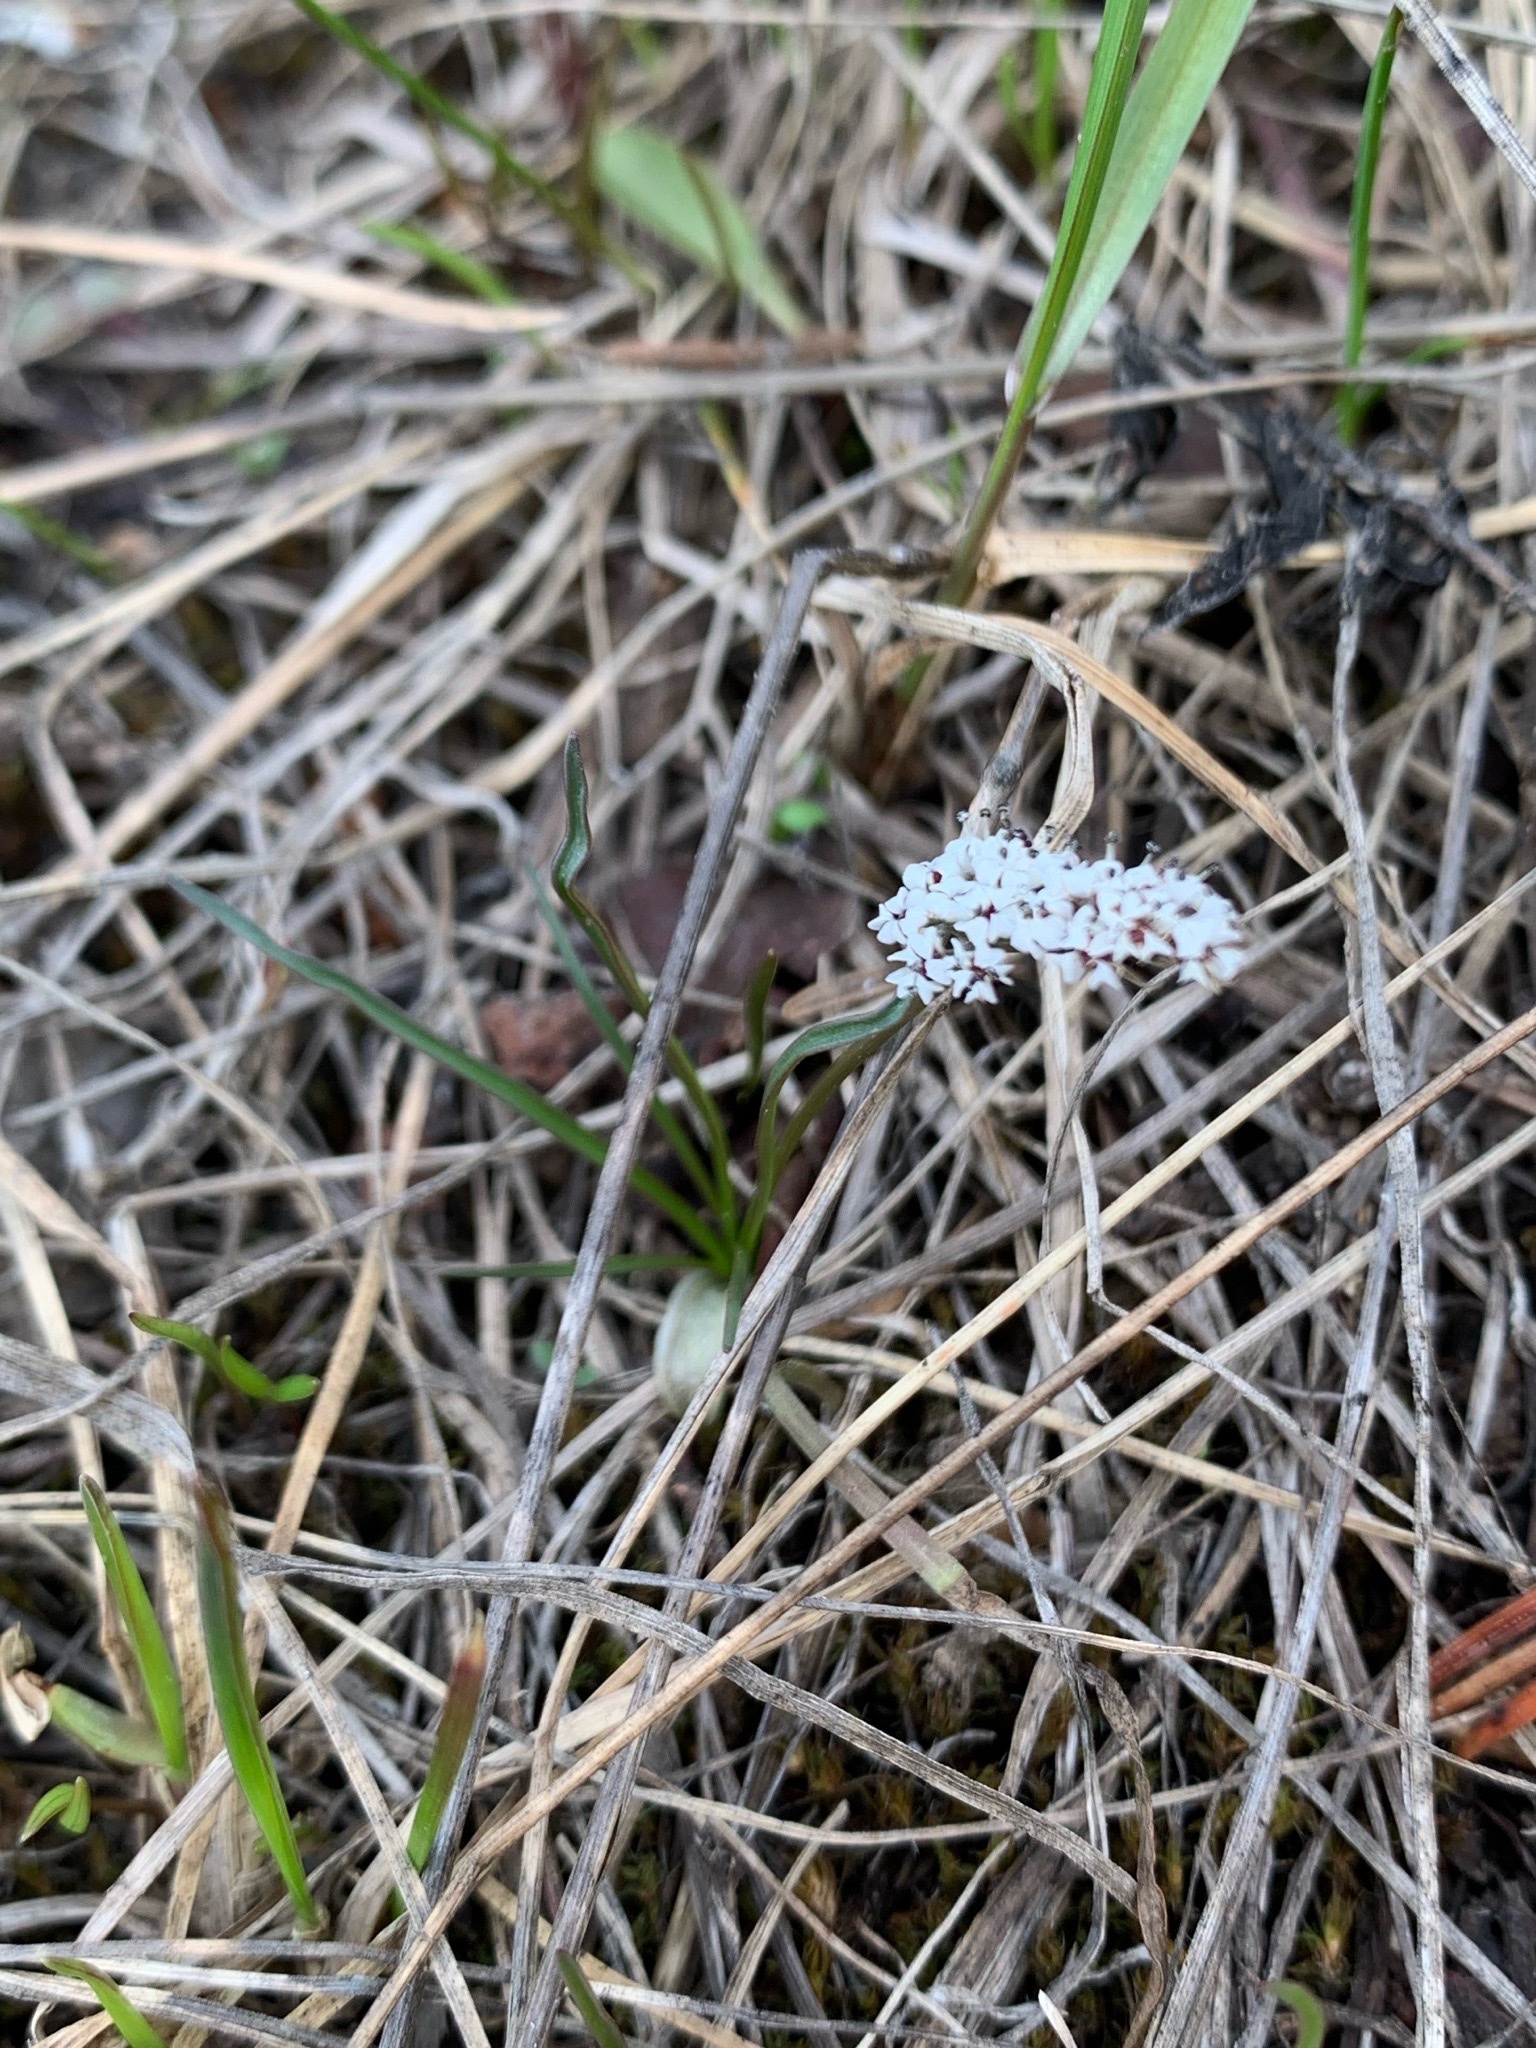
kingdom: Plantae
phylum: Tracheophyta
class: Magnoliopsida
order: Apiales
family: Apiaceae
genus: Lomatium
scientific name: Lomatium linearifolium
